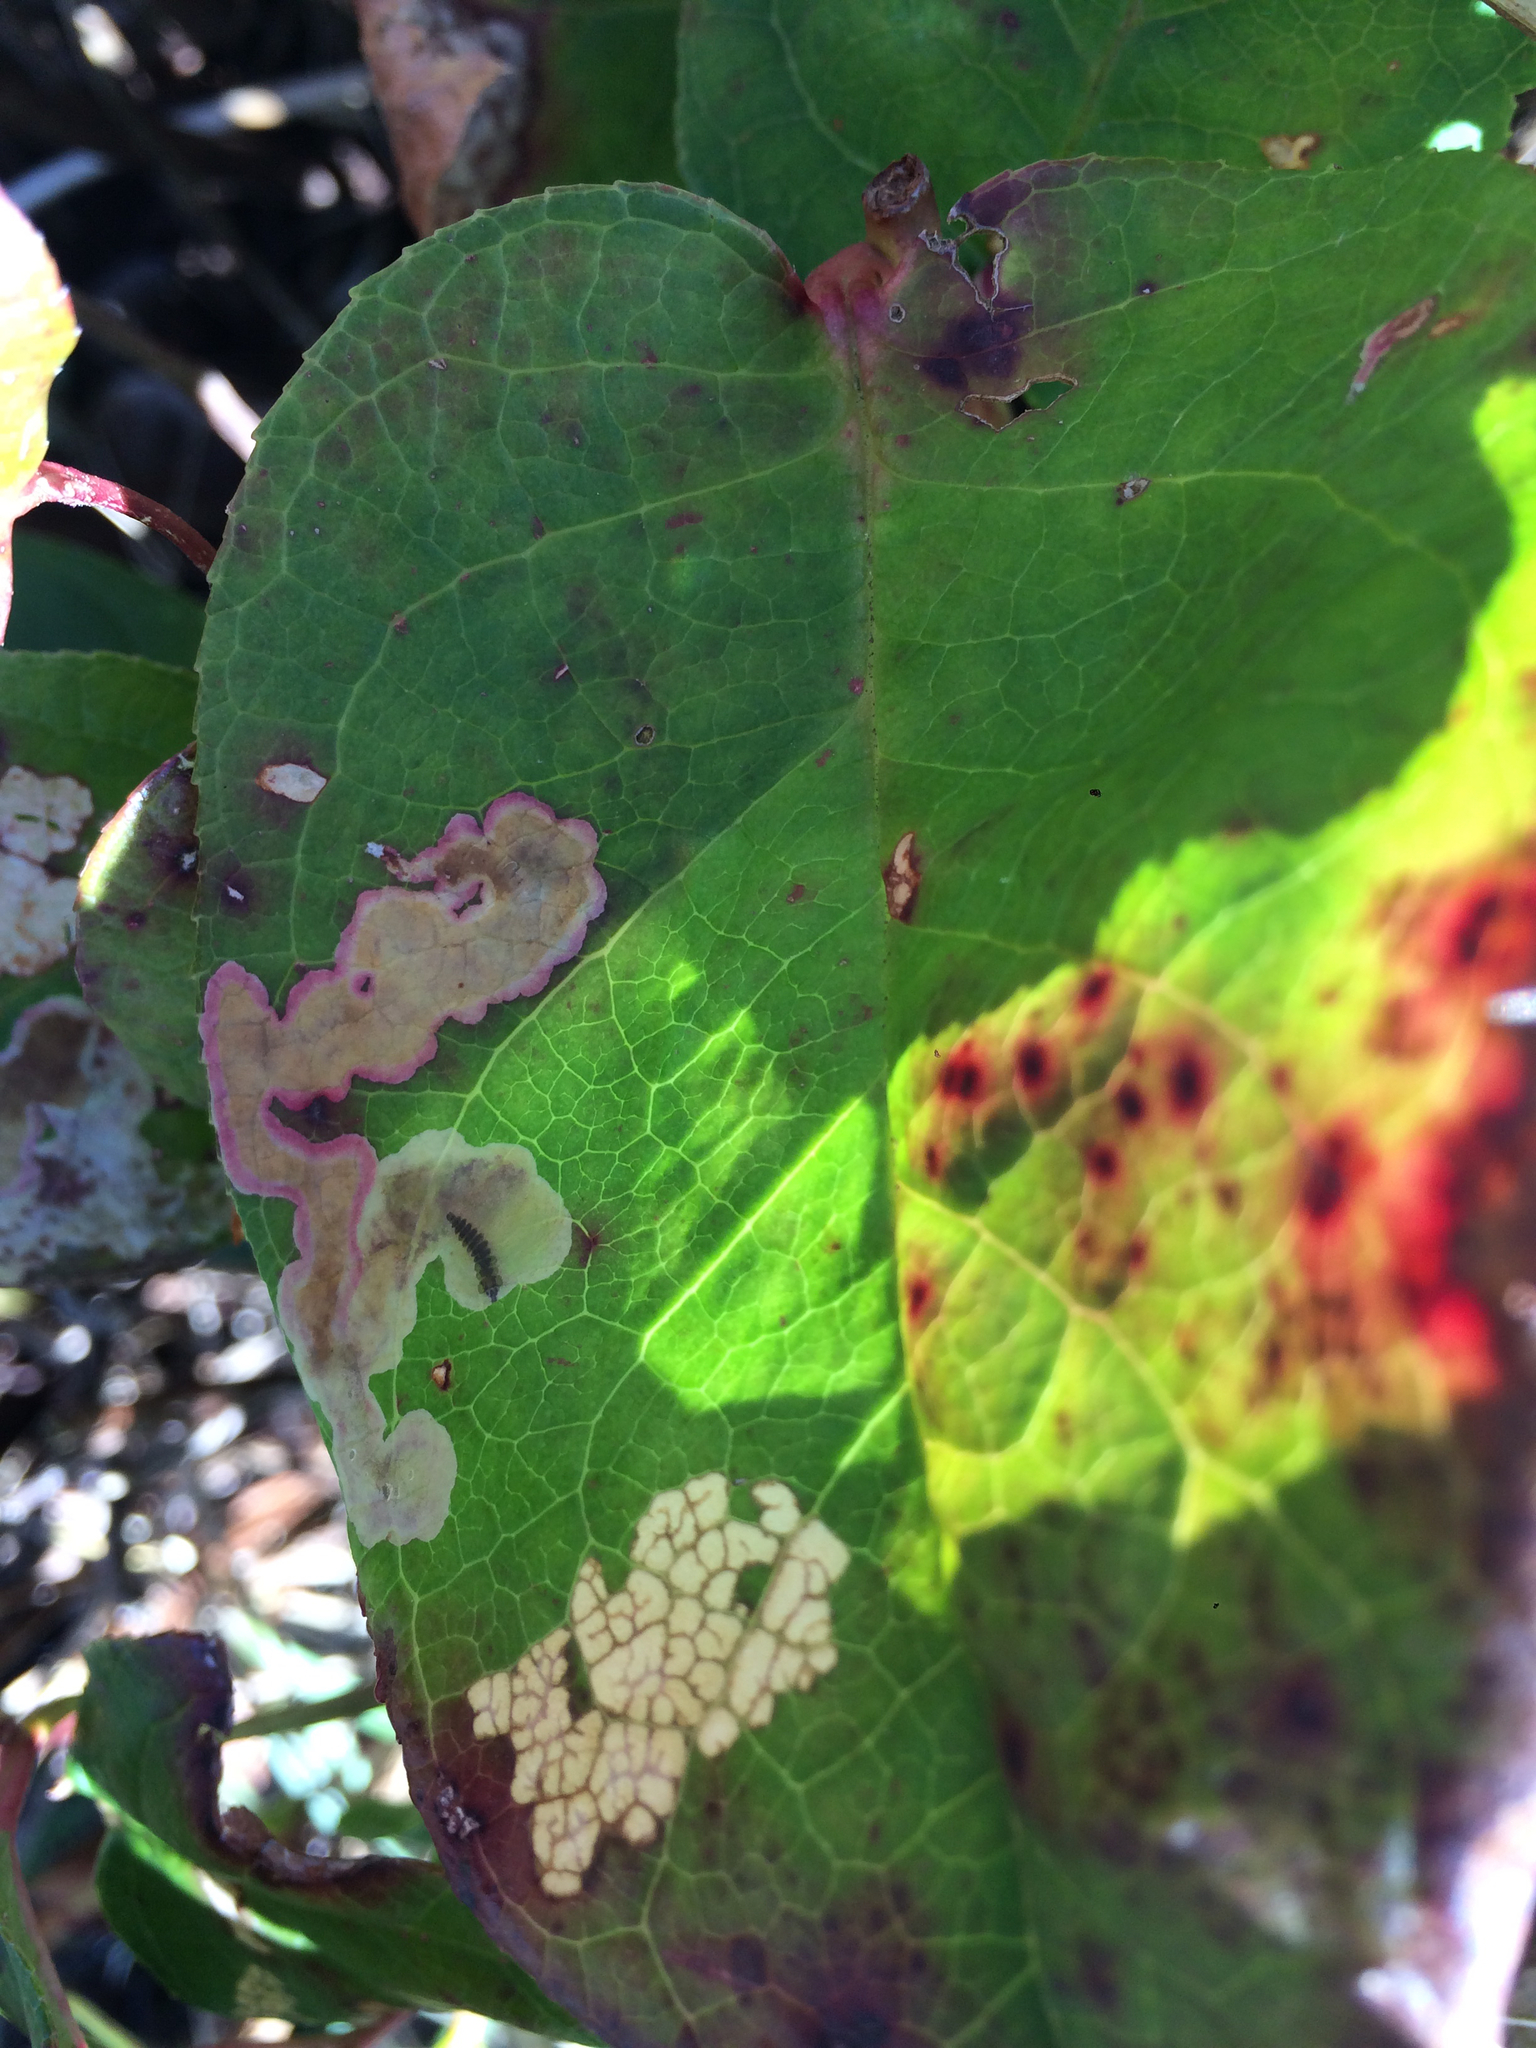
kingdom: Animalia
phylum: Arthropoda
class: Insecta
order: Lepidoptera
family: Gracillariidae
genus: Cameraria
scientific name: Cameraria gaultheriella
